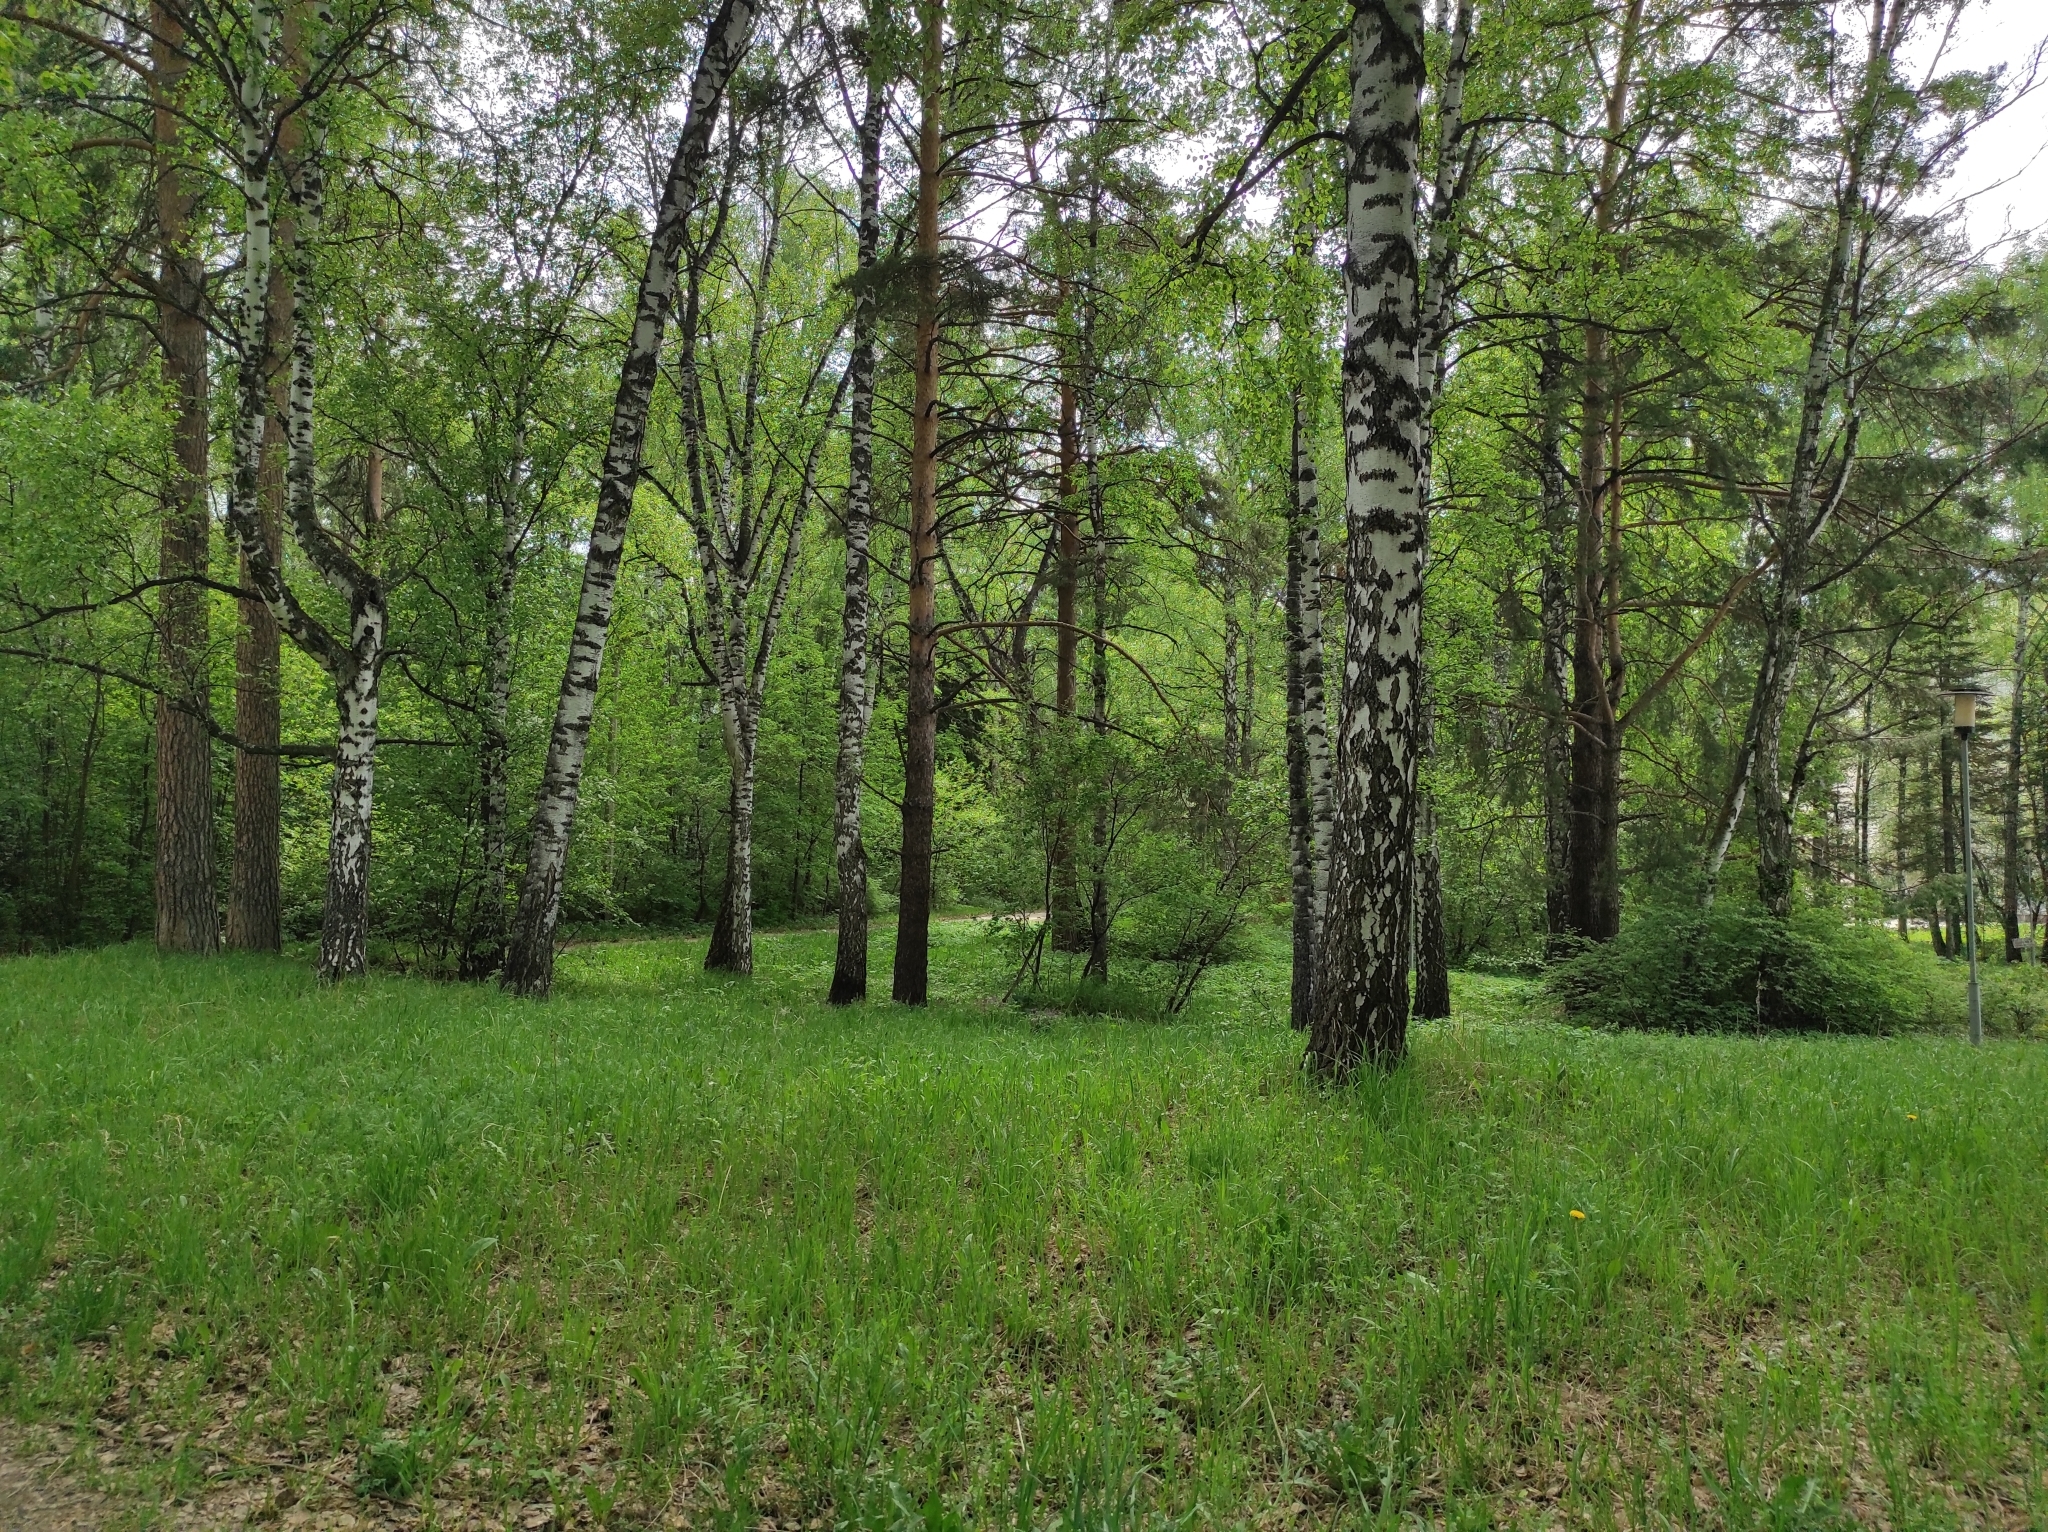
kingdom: Plantae
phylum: Tracheophyta
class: Magnoliopsida
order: Fagales
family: Betulaceae
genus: Betula
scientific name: Betula pendula
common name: Silver birch
